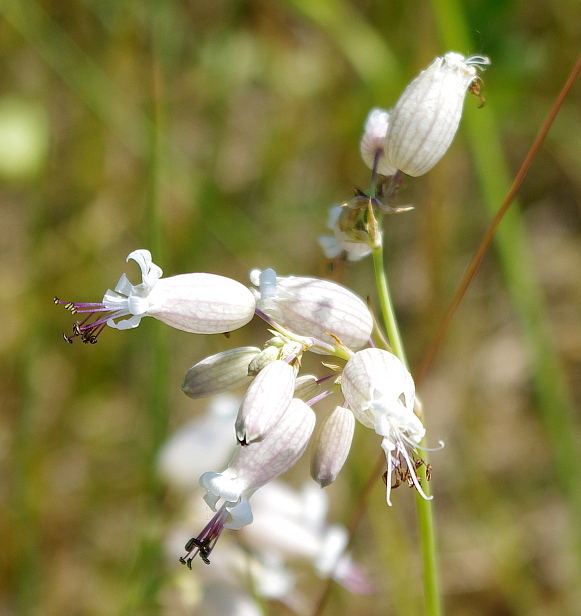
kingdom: Plantae
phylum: Tracheophyta
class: Magnoliopsida
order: Caryophyllales
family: Caryophyllaceae
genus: Silene
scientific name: Silene vulgaris
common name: Bladder campion
